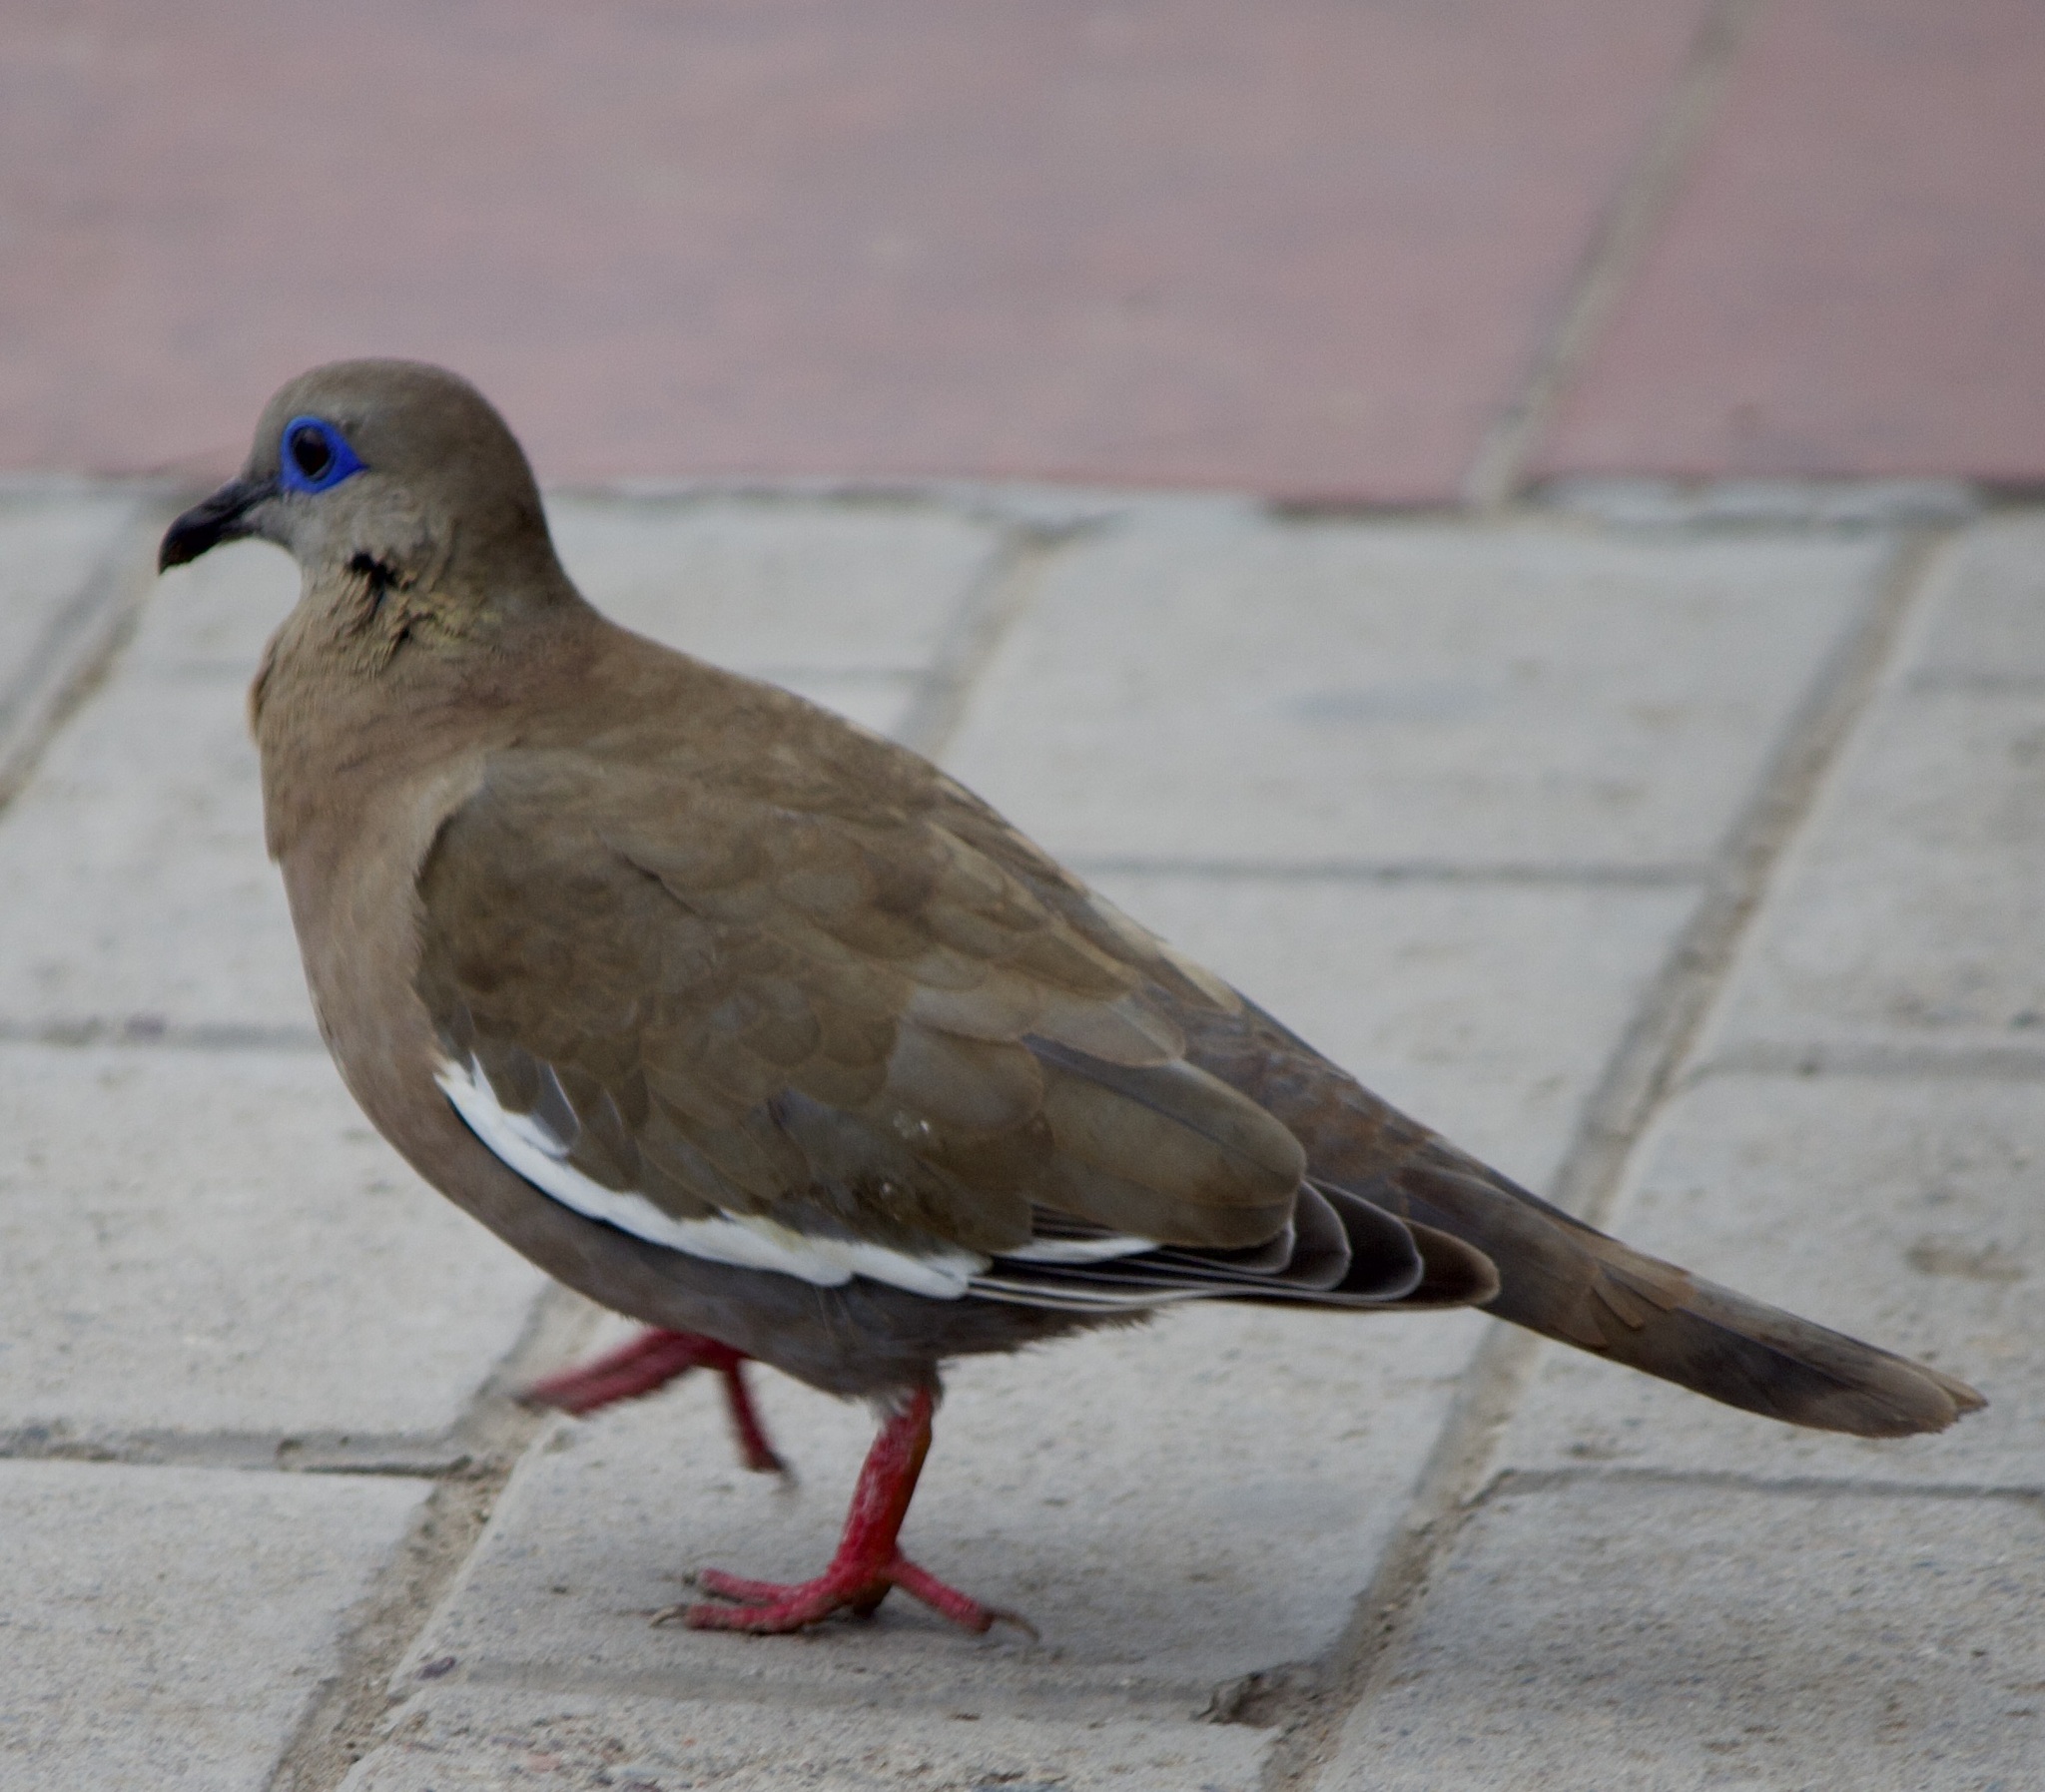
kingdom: Animalia
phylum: Chordata
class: Aves
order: Columbiformes
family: Columbidae
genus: Zenaida
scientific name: Zenaida meloda
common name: West peruvian dove
